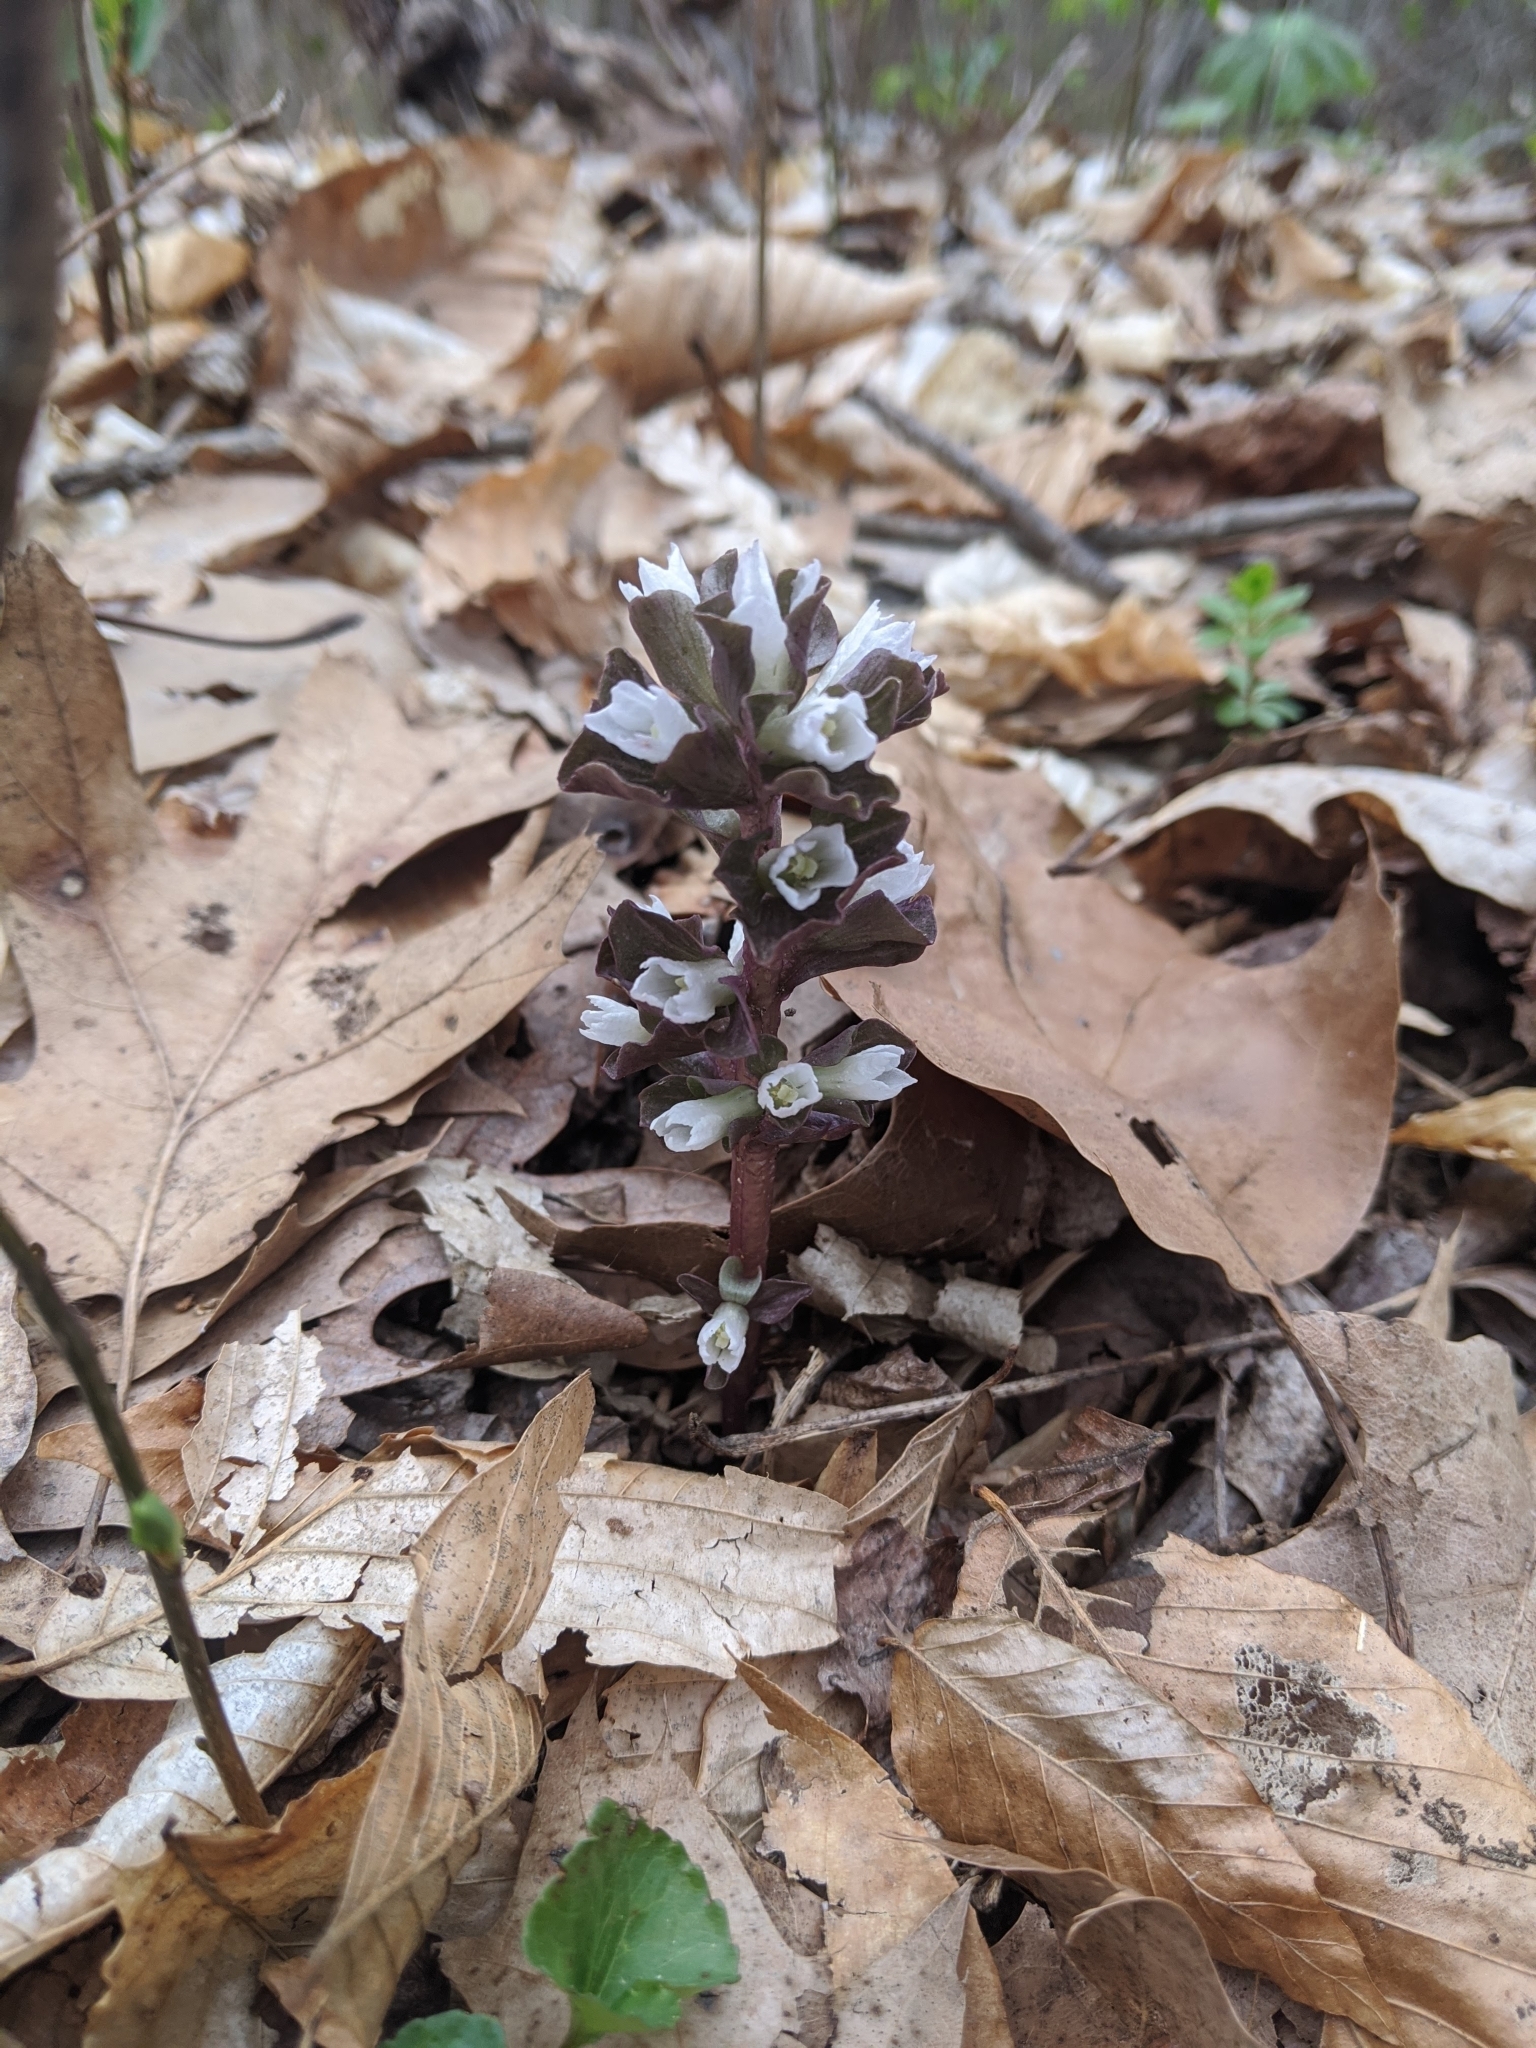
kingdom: Plantae
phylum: Tracheophyta
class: Magnoliopsida
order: Gentianales
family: Gentianaceae
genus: Obolaria
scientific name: Obolaria virginica
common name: Pennywort
